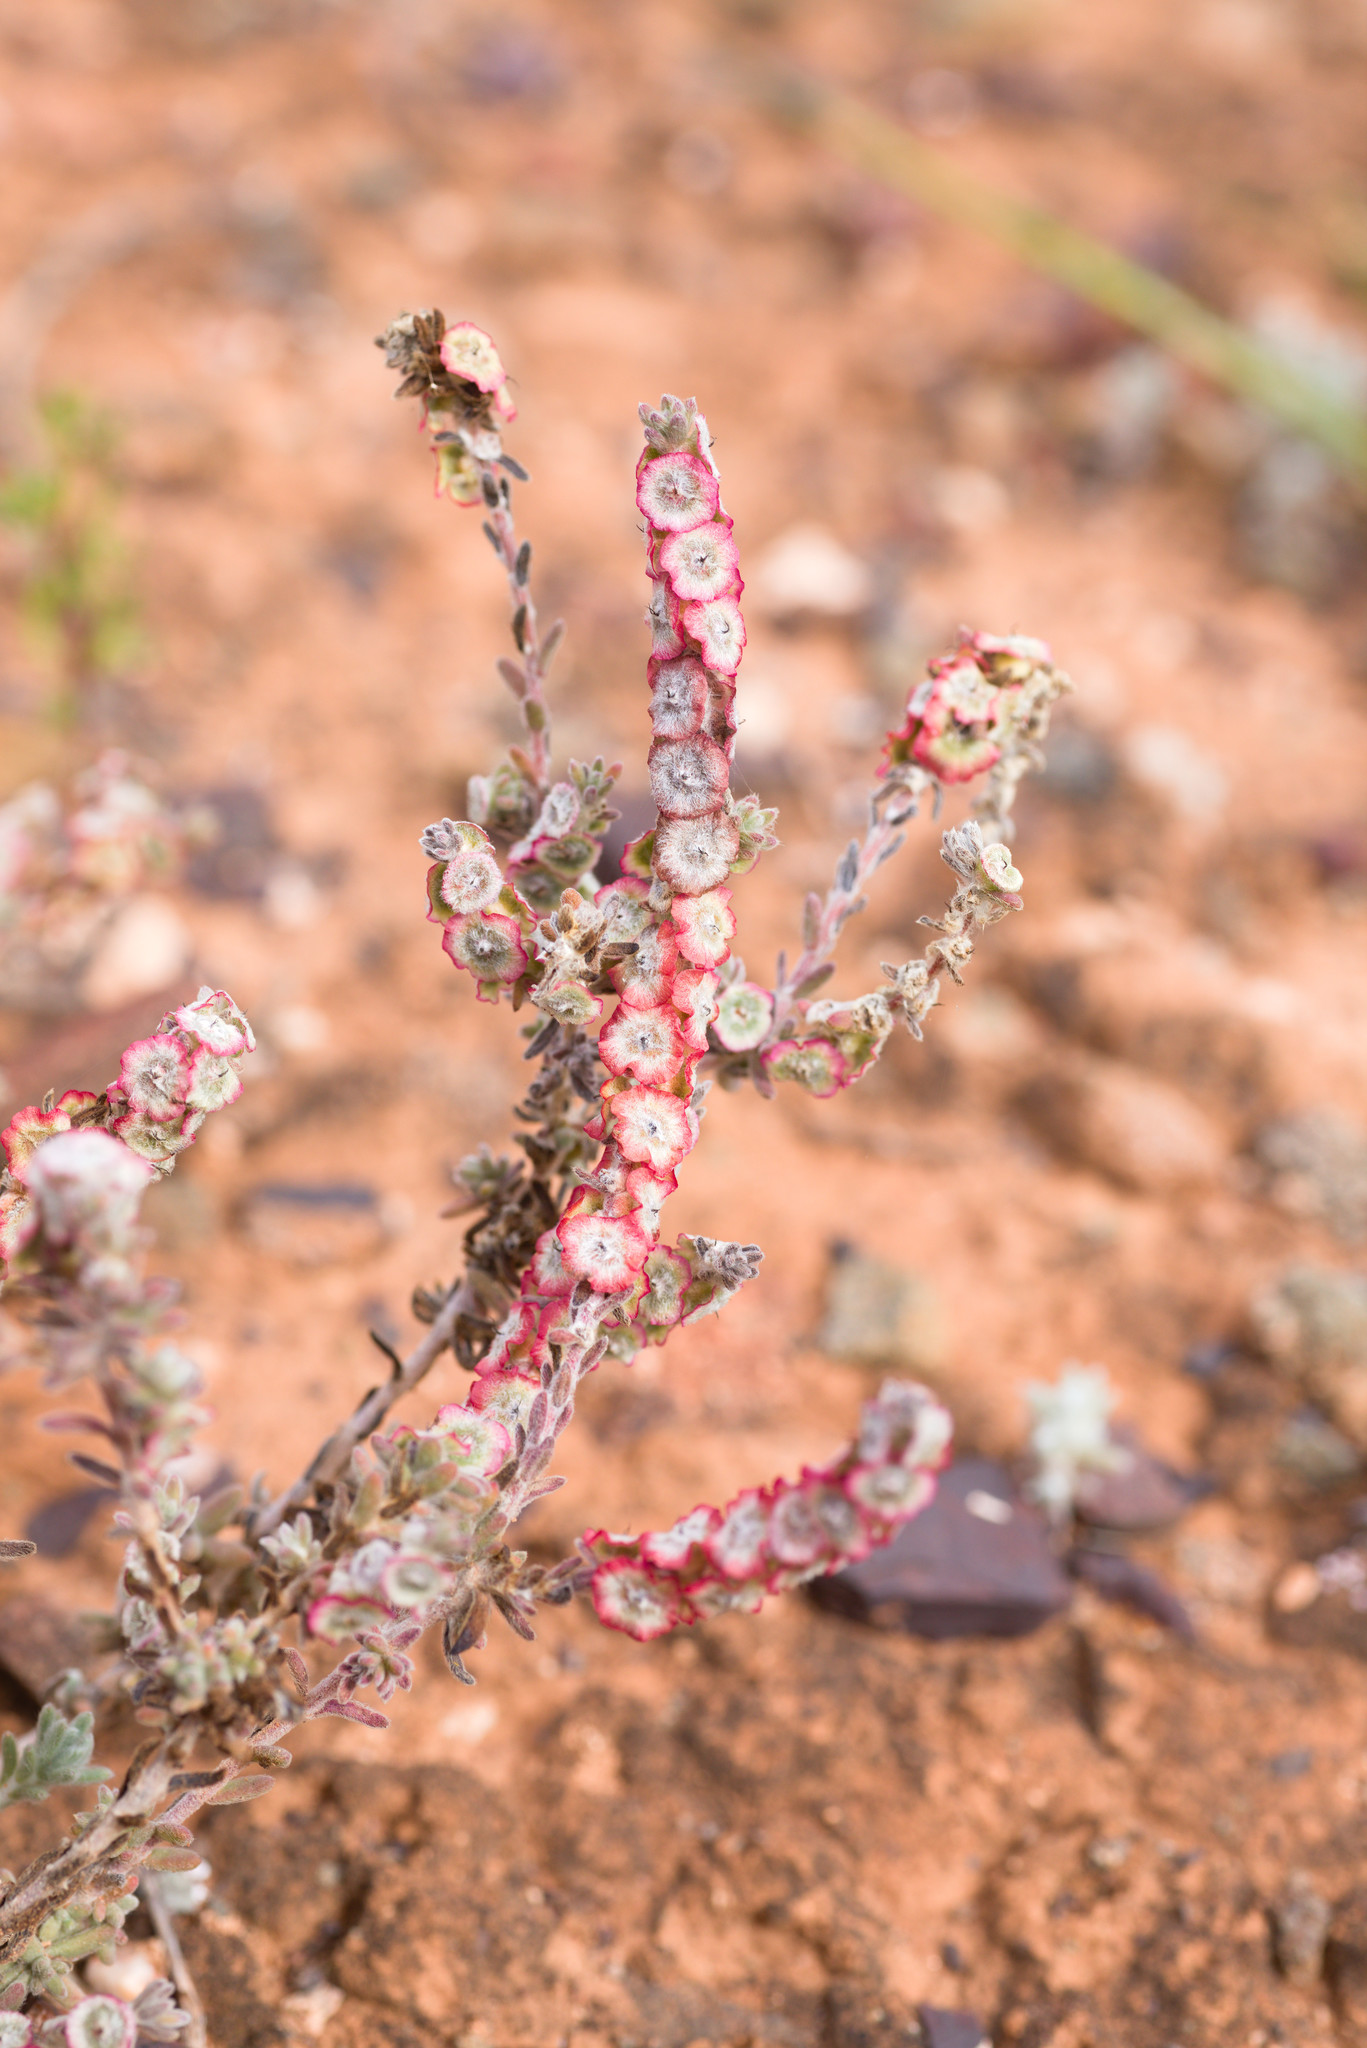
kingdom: Plantae
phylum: Tracheophyta
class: Magnoliopsida
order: Caryophyllales
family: Amaranthaceae
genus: Maireana
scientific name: Maireana trichoptera
